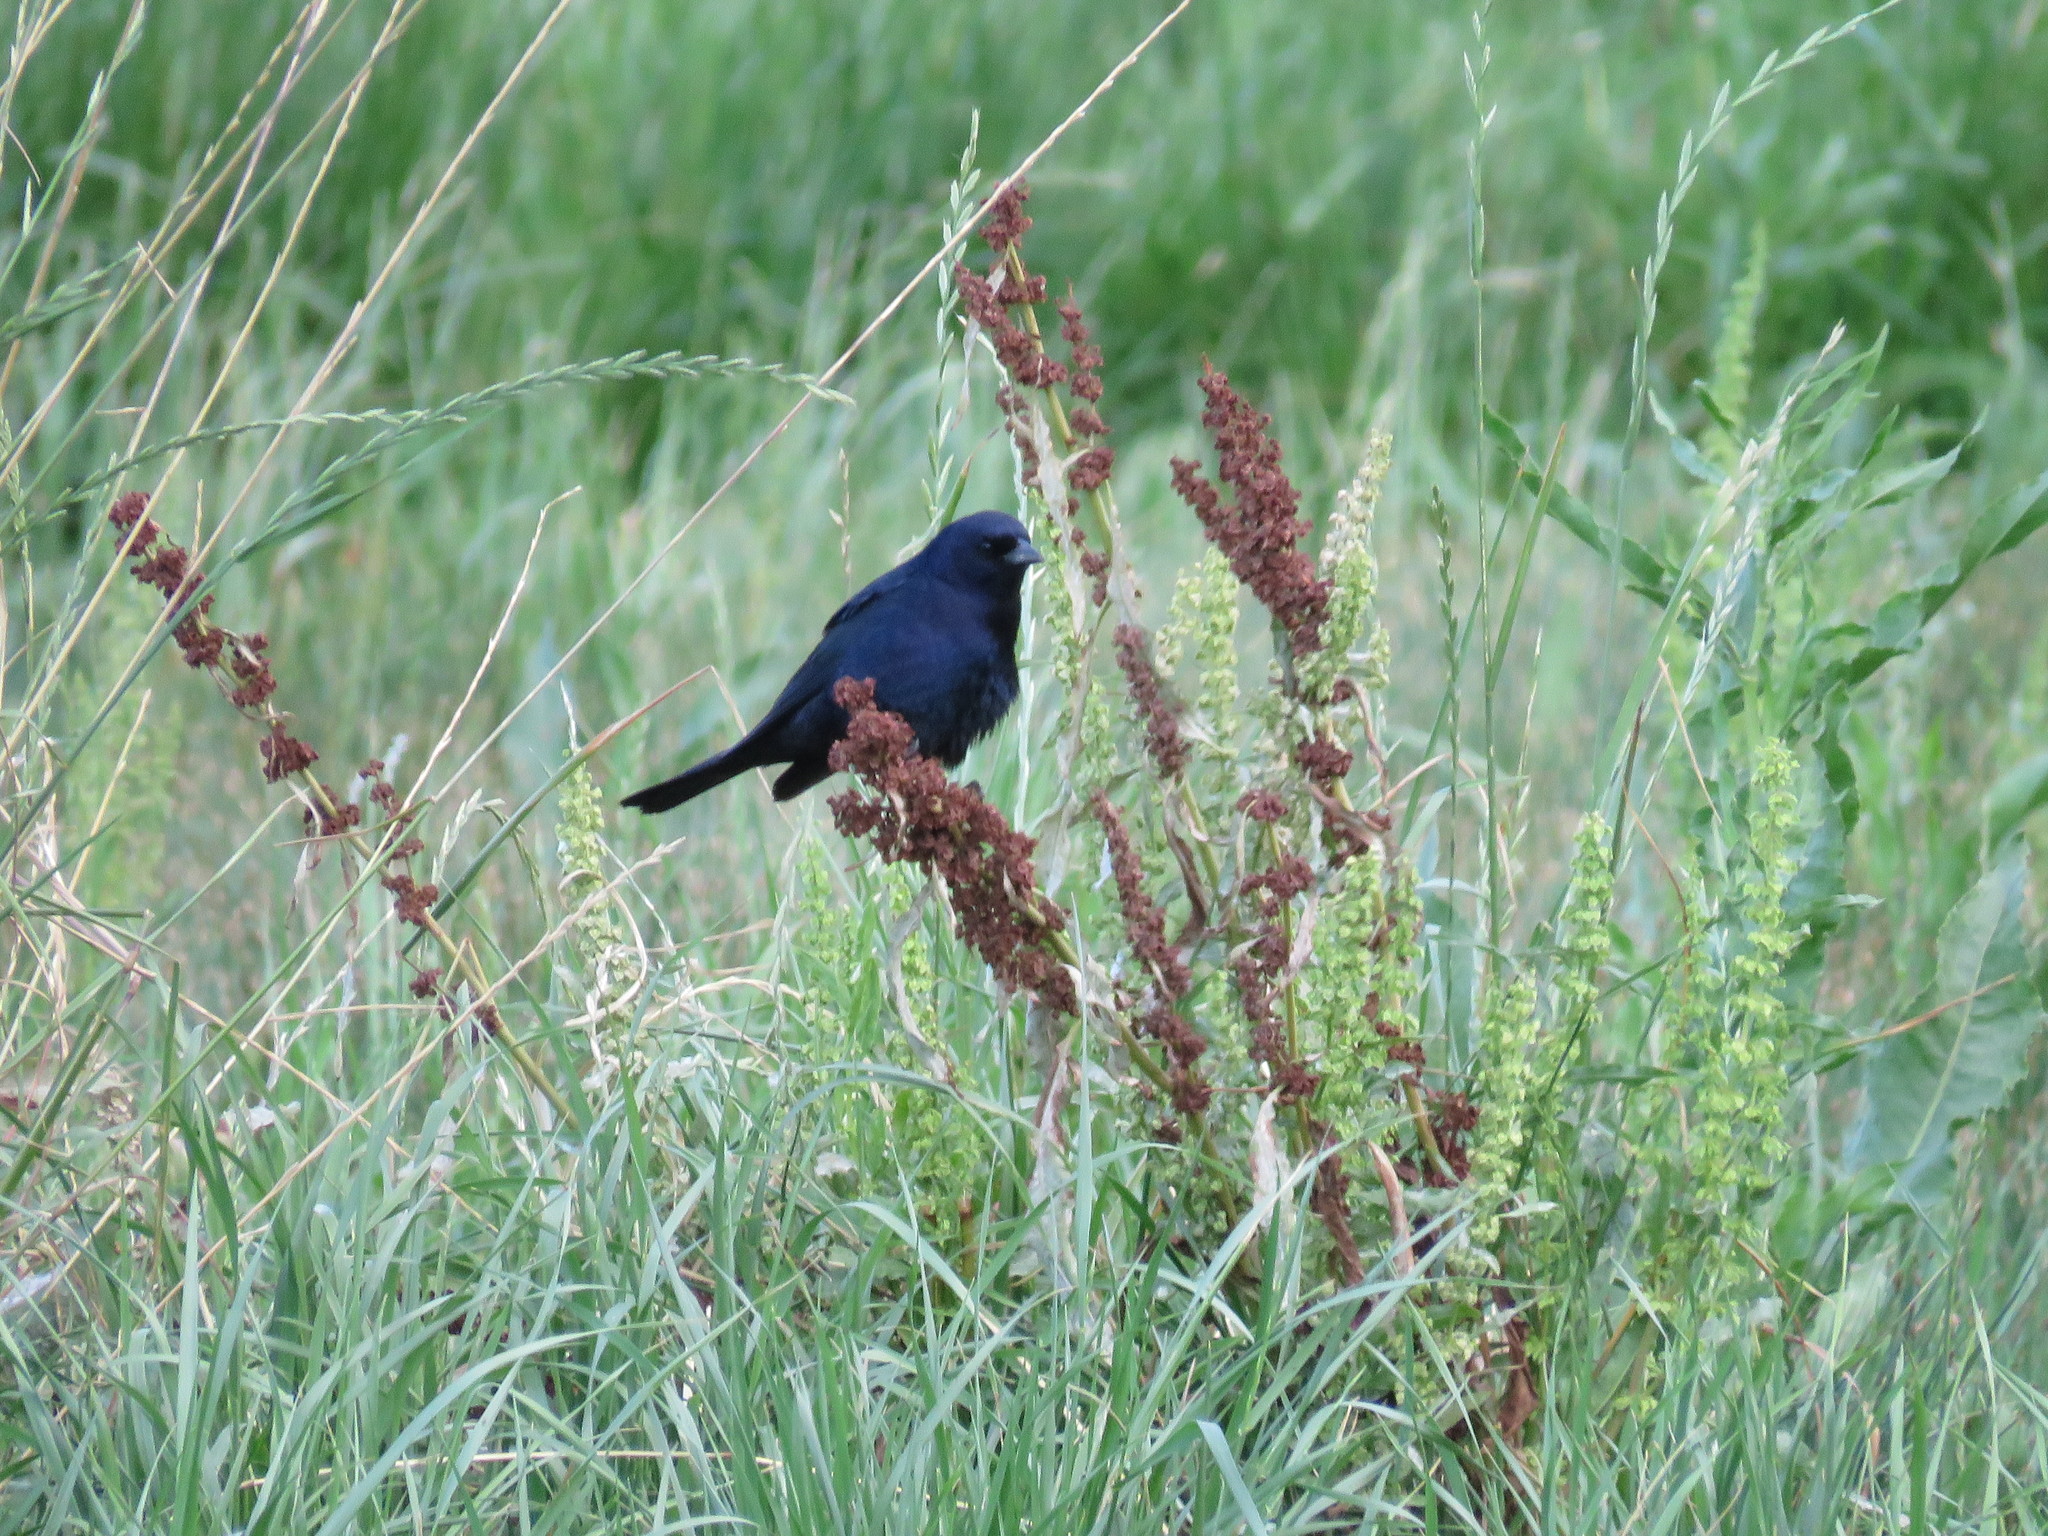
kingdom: Animalia
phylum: Chordata
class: Aves
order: Passeriformes
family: Icteridae
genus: Molothrus
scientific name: Molothrus bonariensis
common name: Shiny cowbird
